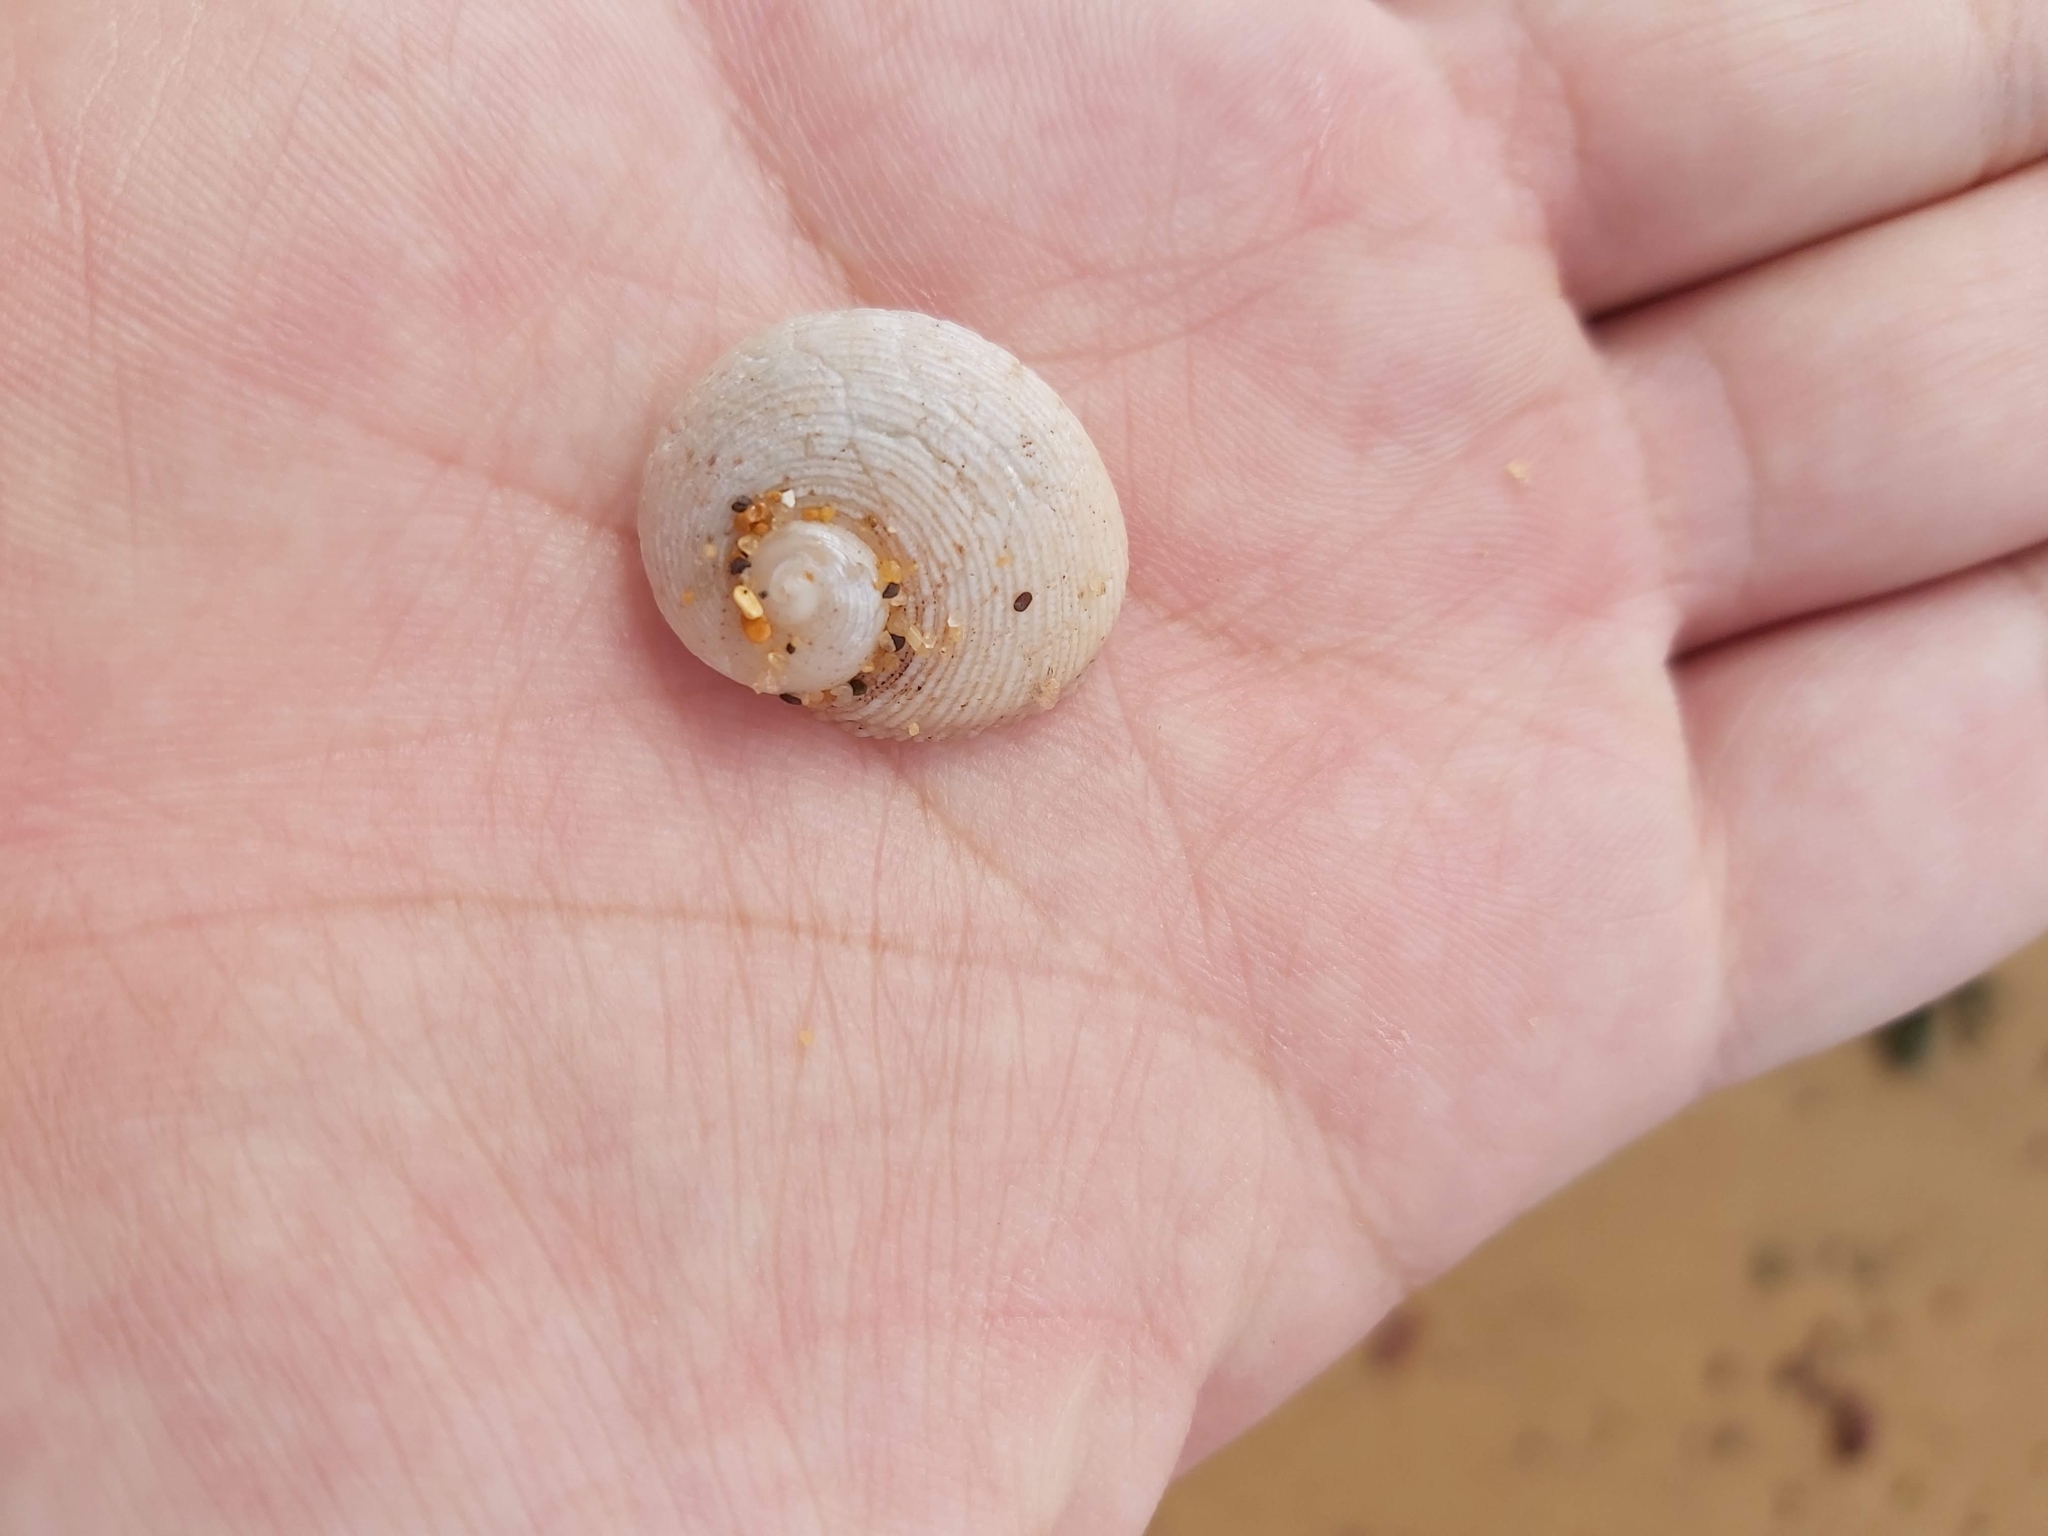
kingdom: Animalia
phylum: Mollusca
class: Gastropoda
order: Seguenziida
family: Chilodontaidae
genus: Granata
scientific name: Granata imbricata
